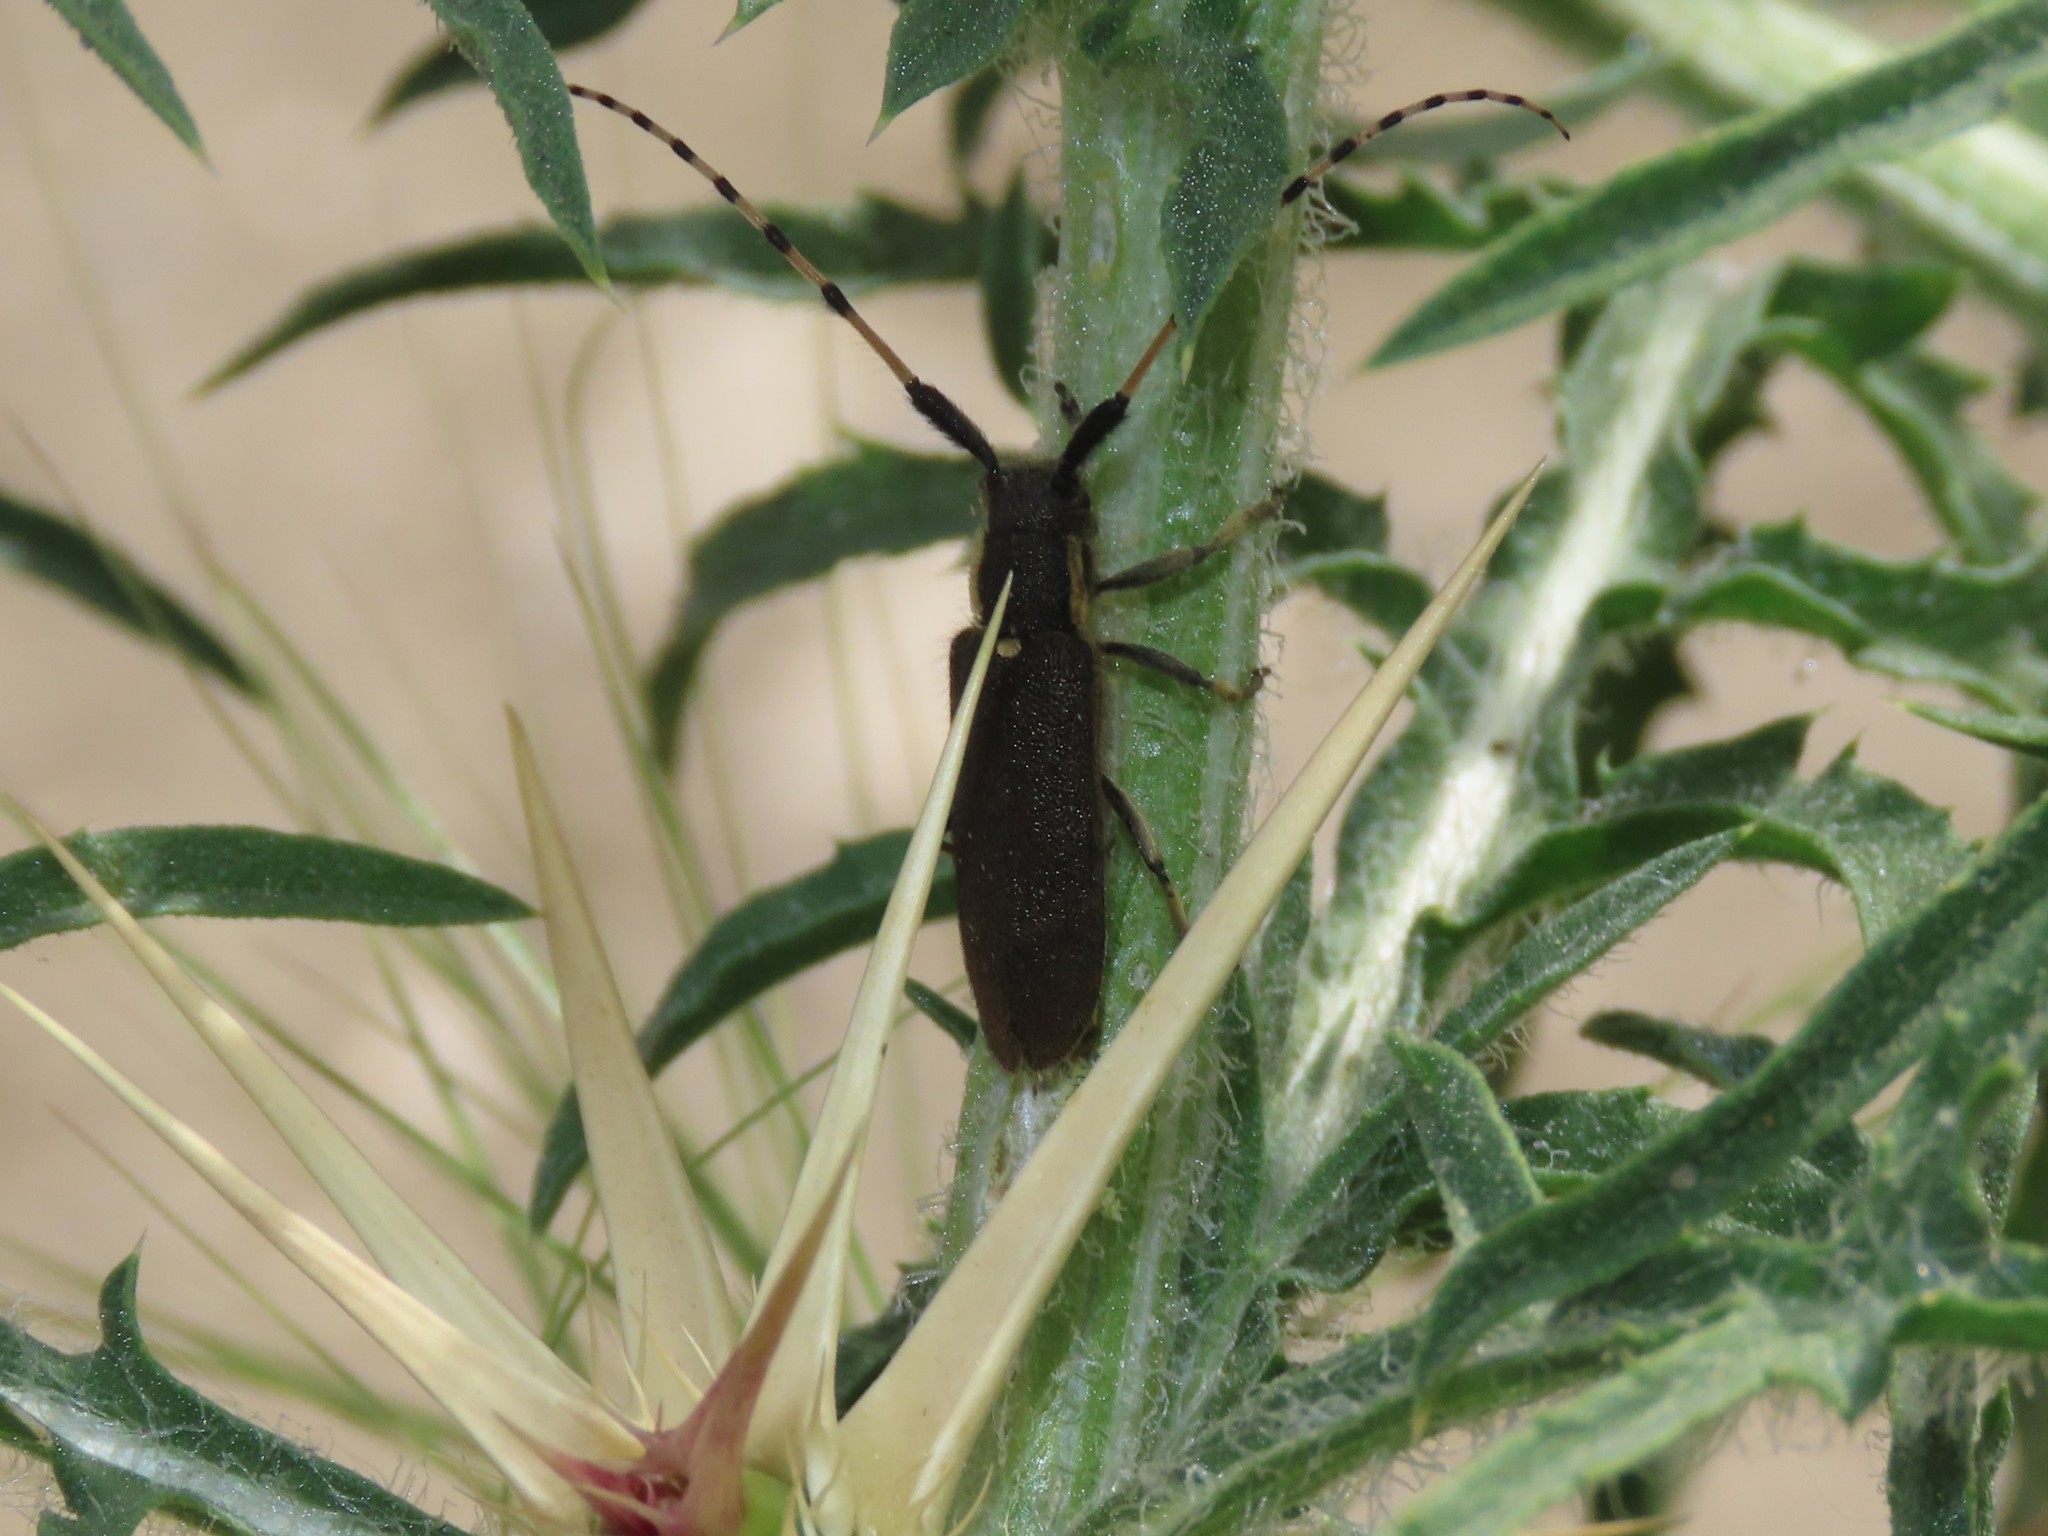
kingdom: Animalia
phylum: Arthropoda
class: Insecta
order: Coleoptera
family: Cerambycidae
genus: Agapanthia
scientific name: Agapanthia annularis
